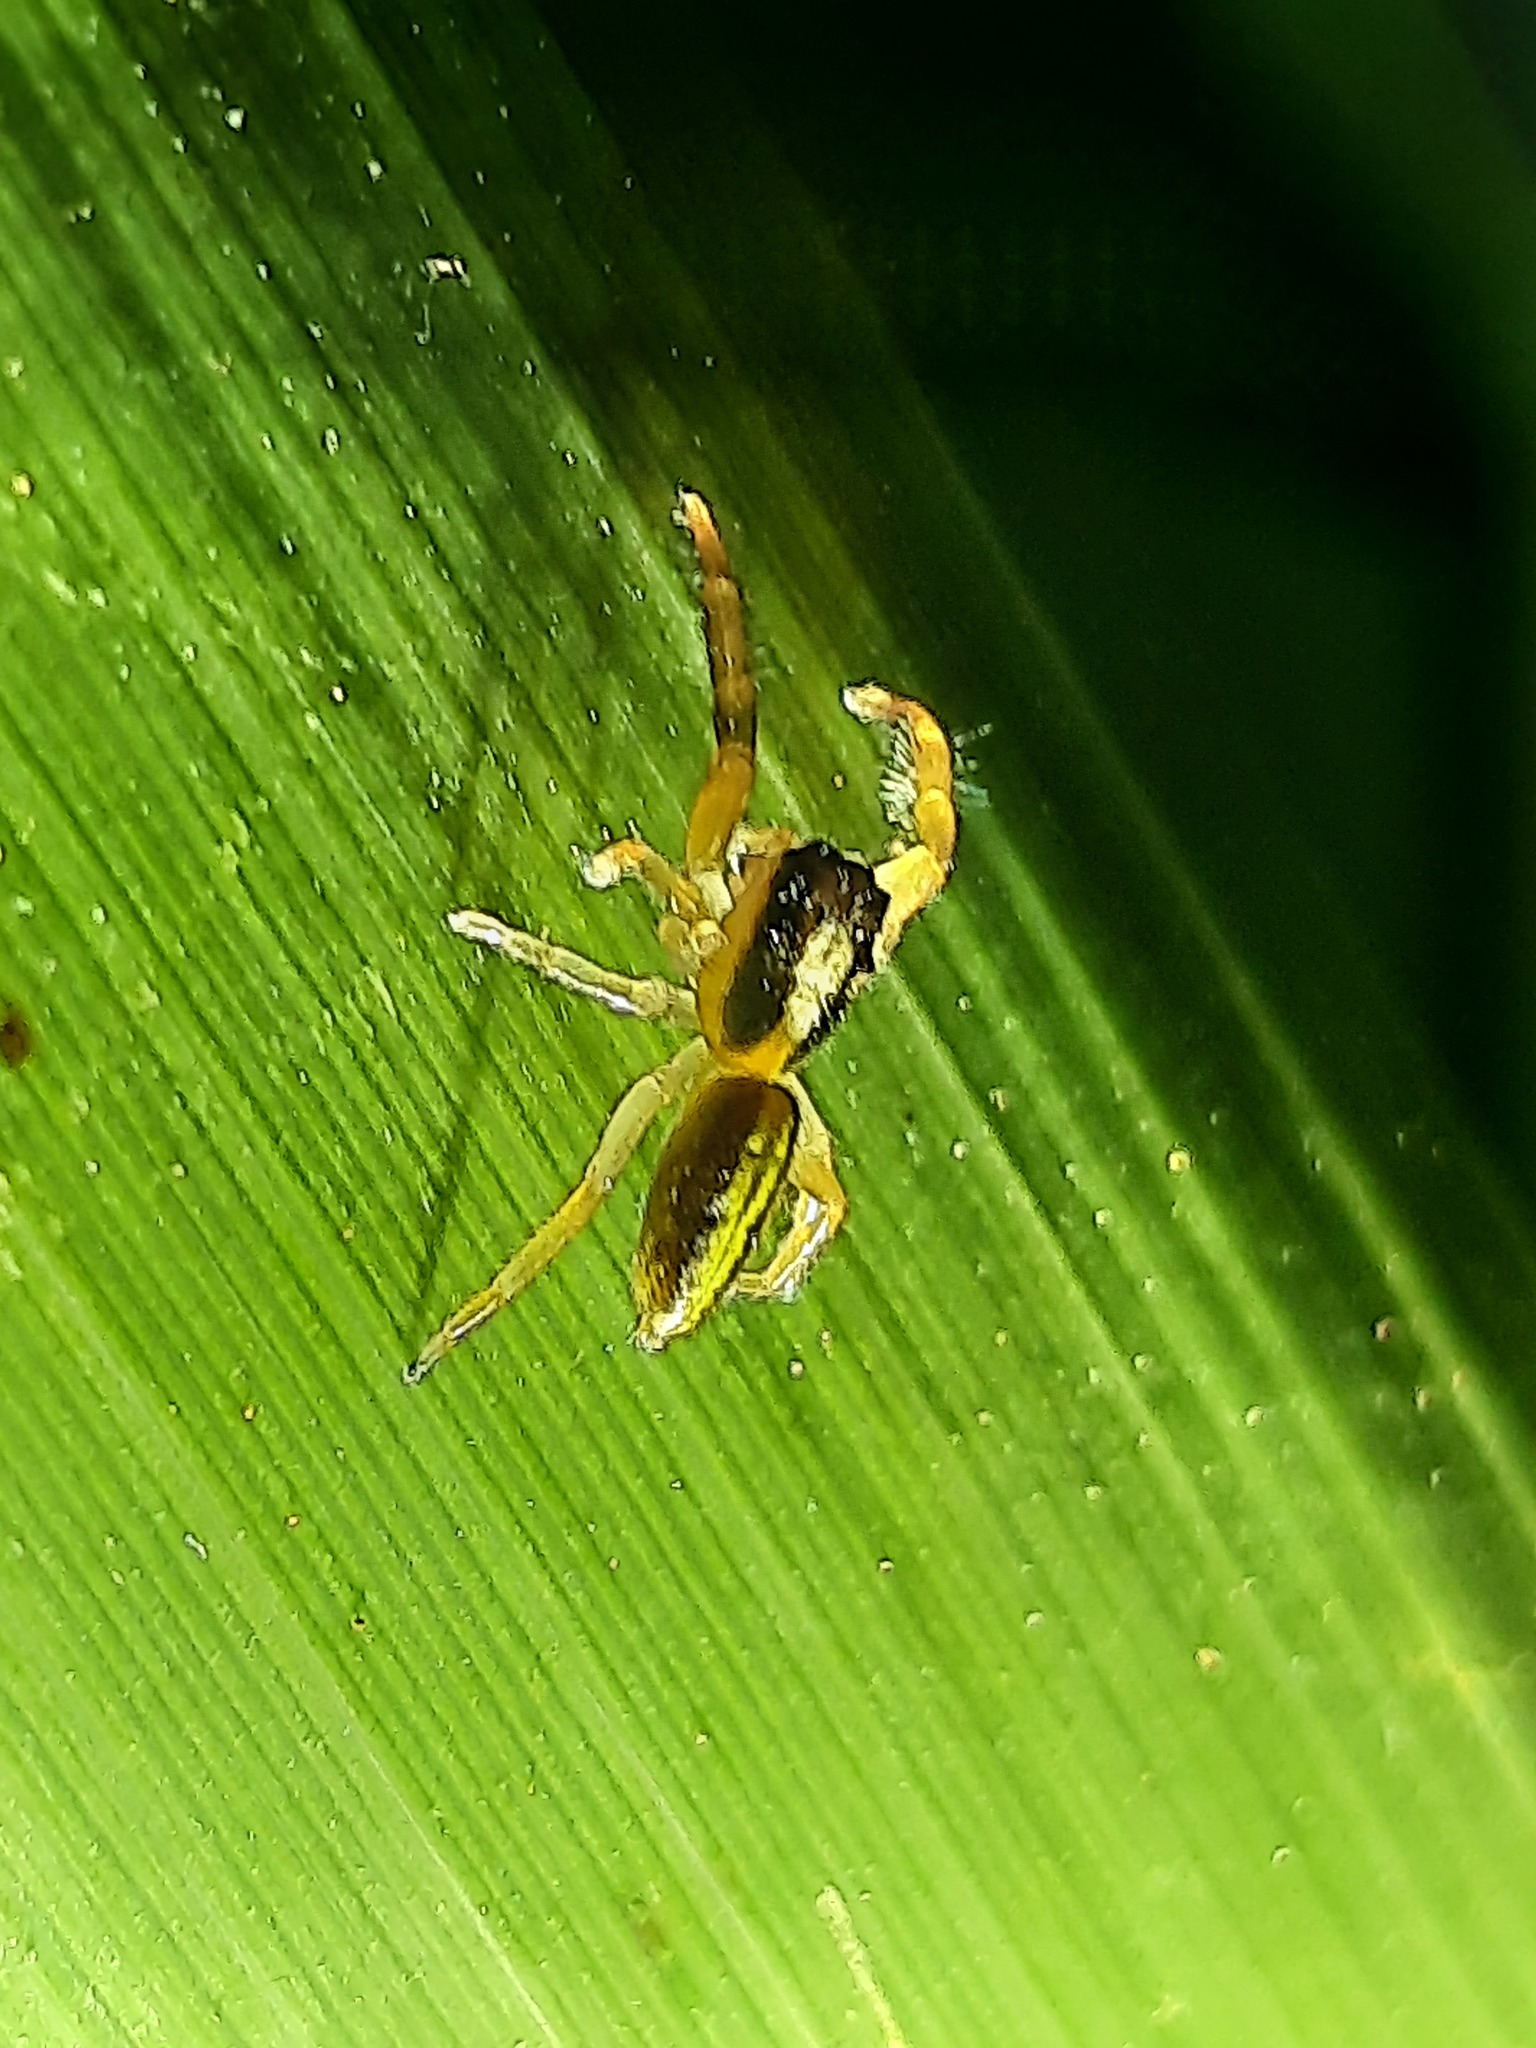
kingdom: Animalia
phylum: Arthropoda
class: Arachnida
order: Araneae
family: Salticidae
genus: Trite
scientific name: Trite planiceps
